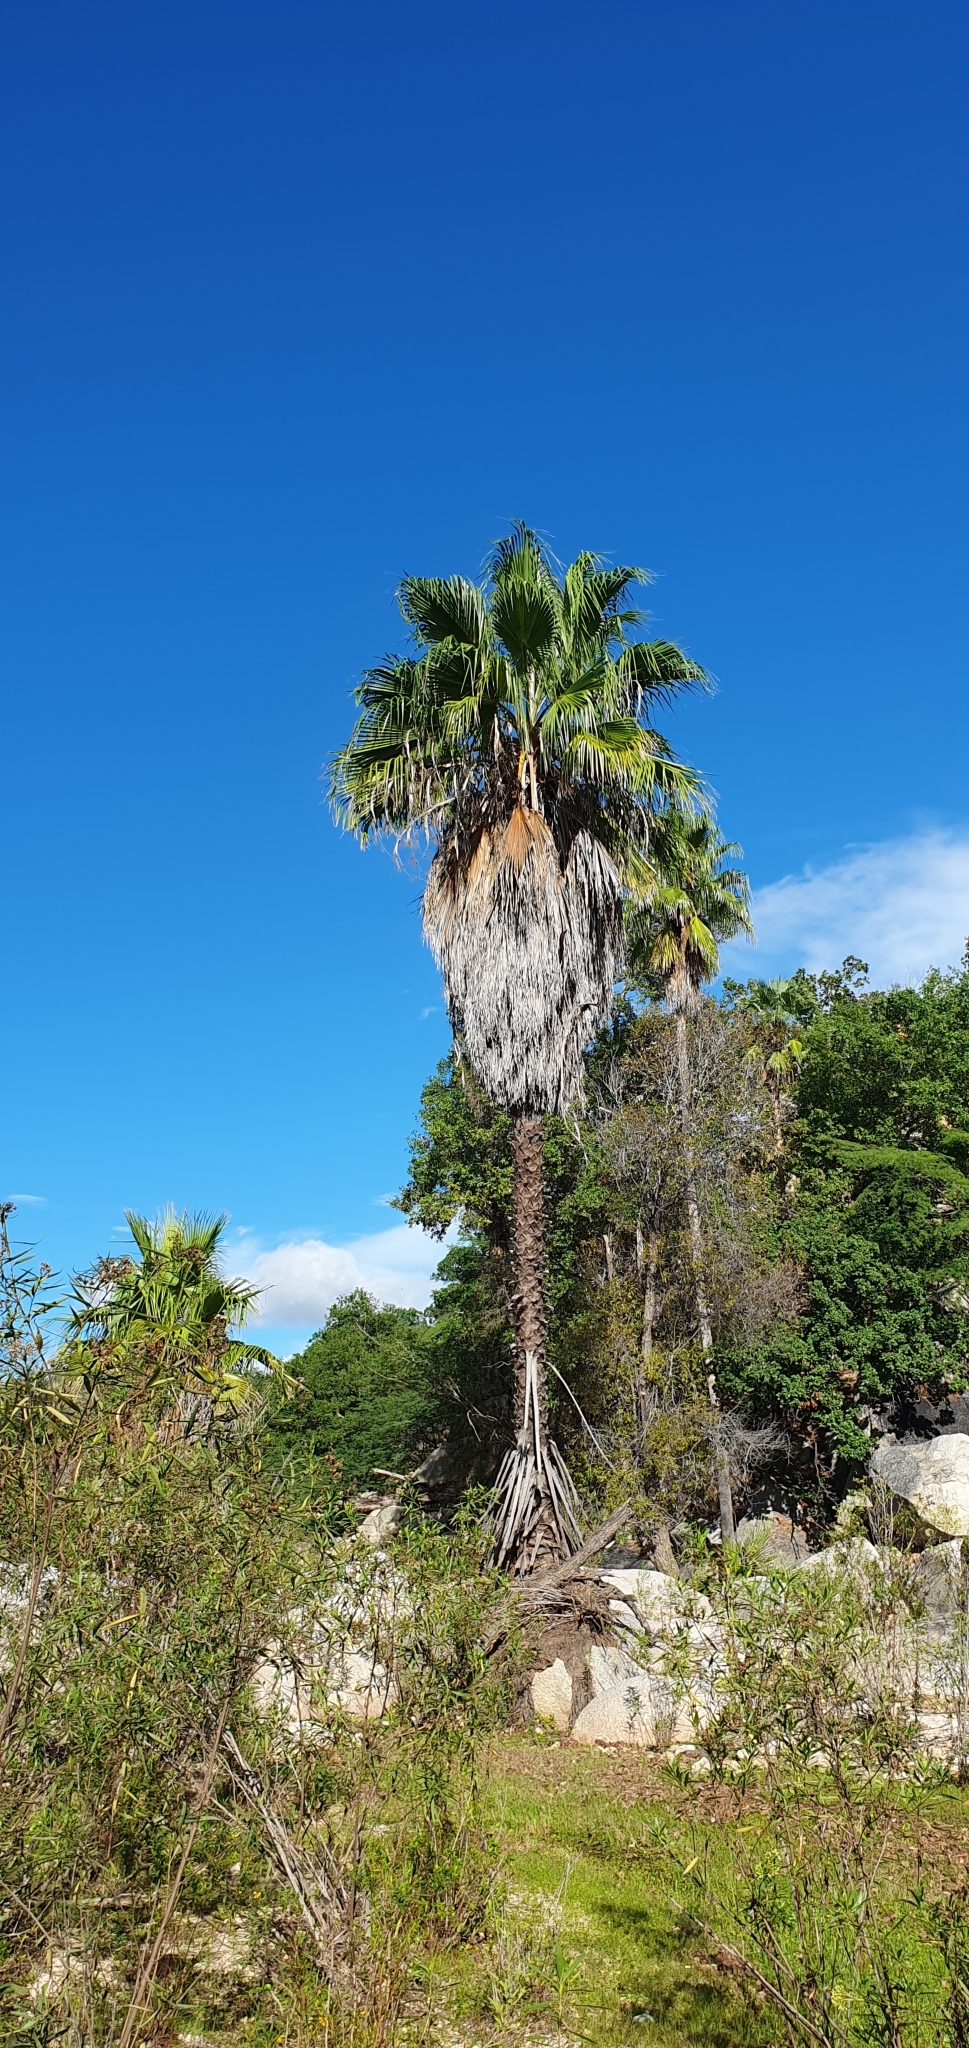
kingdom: Plantae
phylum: Tracheophyta
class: Liliopsida
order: Arecales
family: Arecaceae
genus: Washingtonia
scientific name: Washingtonia robusta
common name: Mexican fan palm
